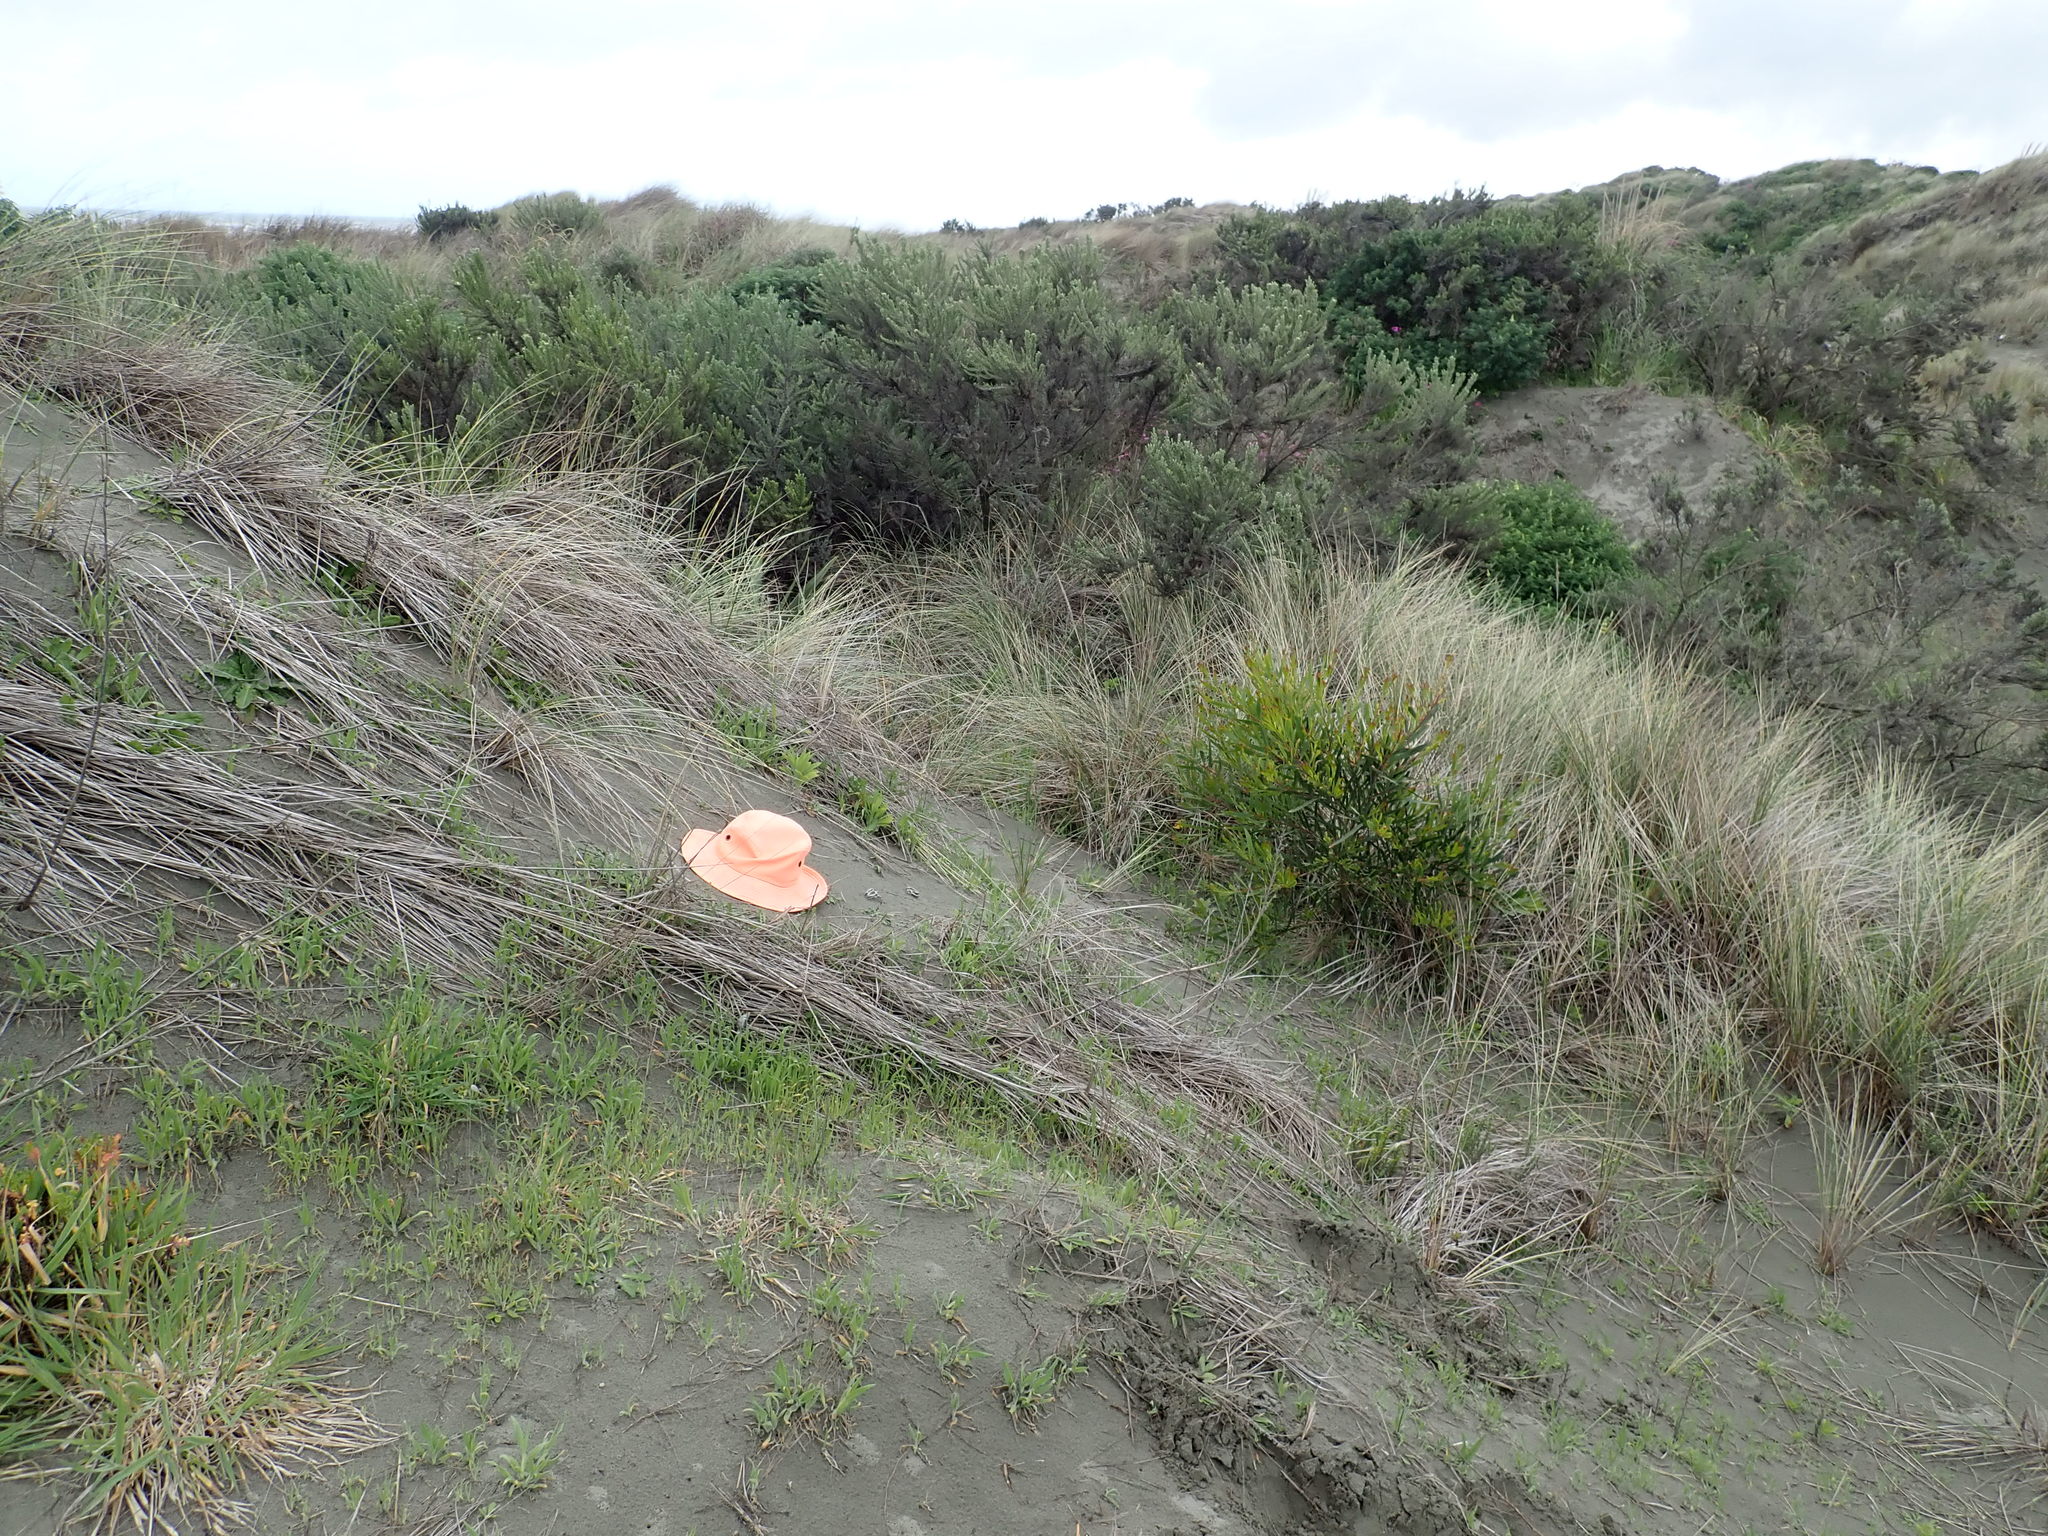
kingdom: Fungi
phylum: Basidiomycota
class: Agaricomycetes
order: Phallales
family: Phallaceae
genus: Ileodictyon
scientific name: Ileodictyon cibarium
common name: Basket fungus
